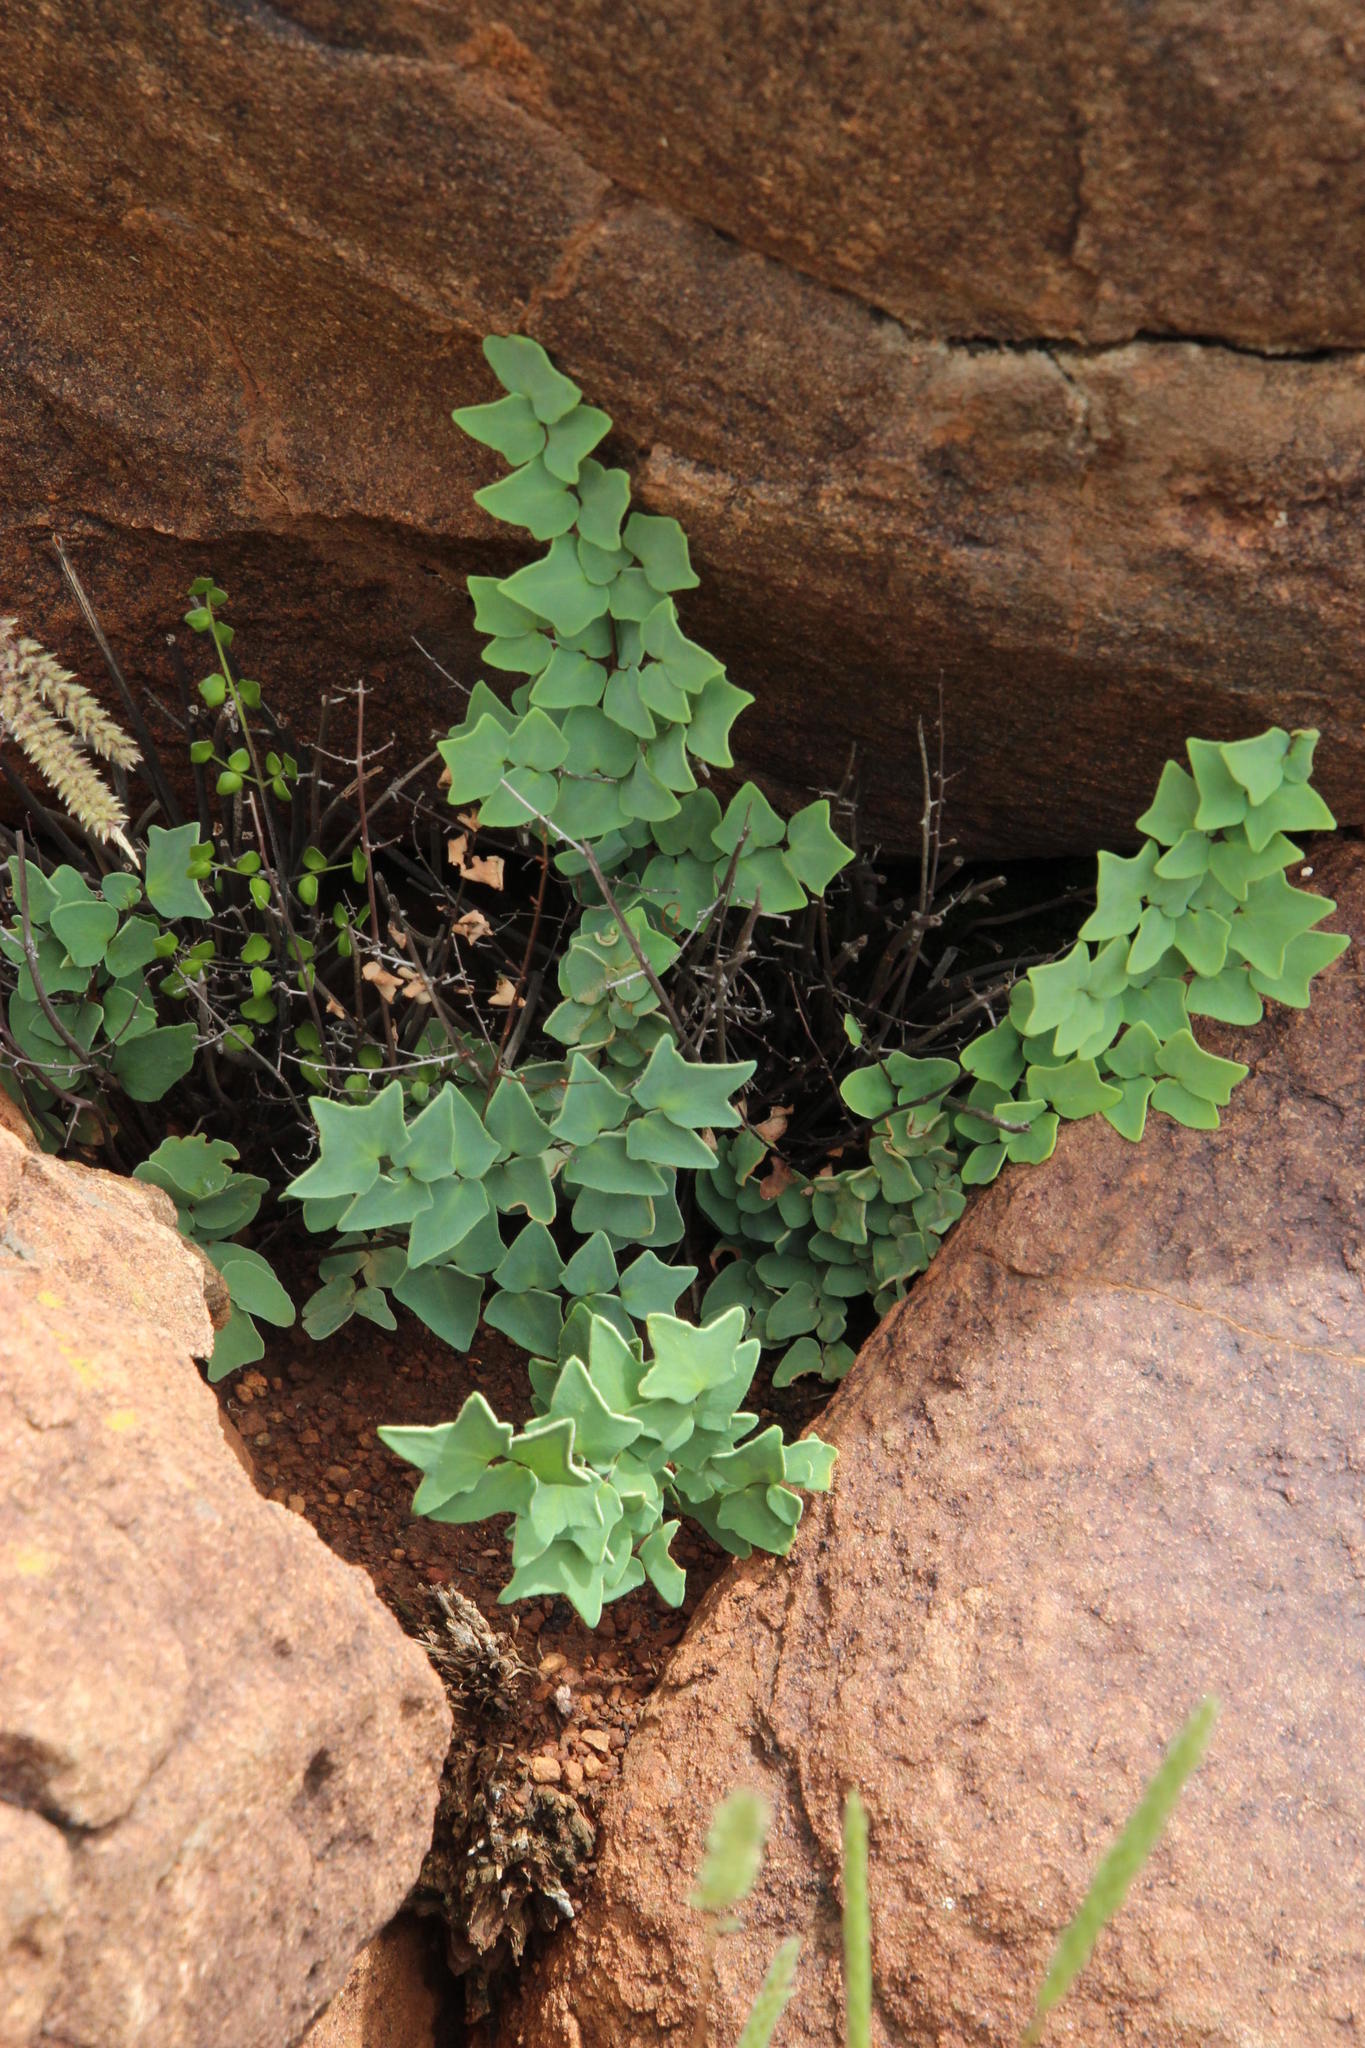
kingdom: Plantae
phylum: Tracheophyta
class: Polypodiopsida
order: Polypodiales
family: Pteridaceae
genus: Pellaea
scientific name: Pellaea calomelanos
